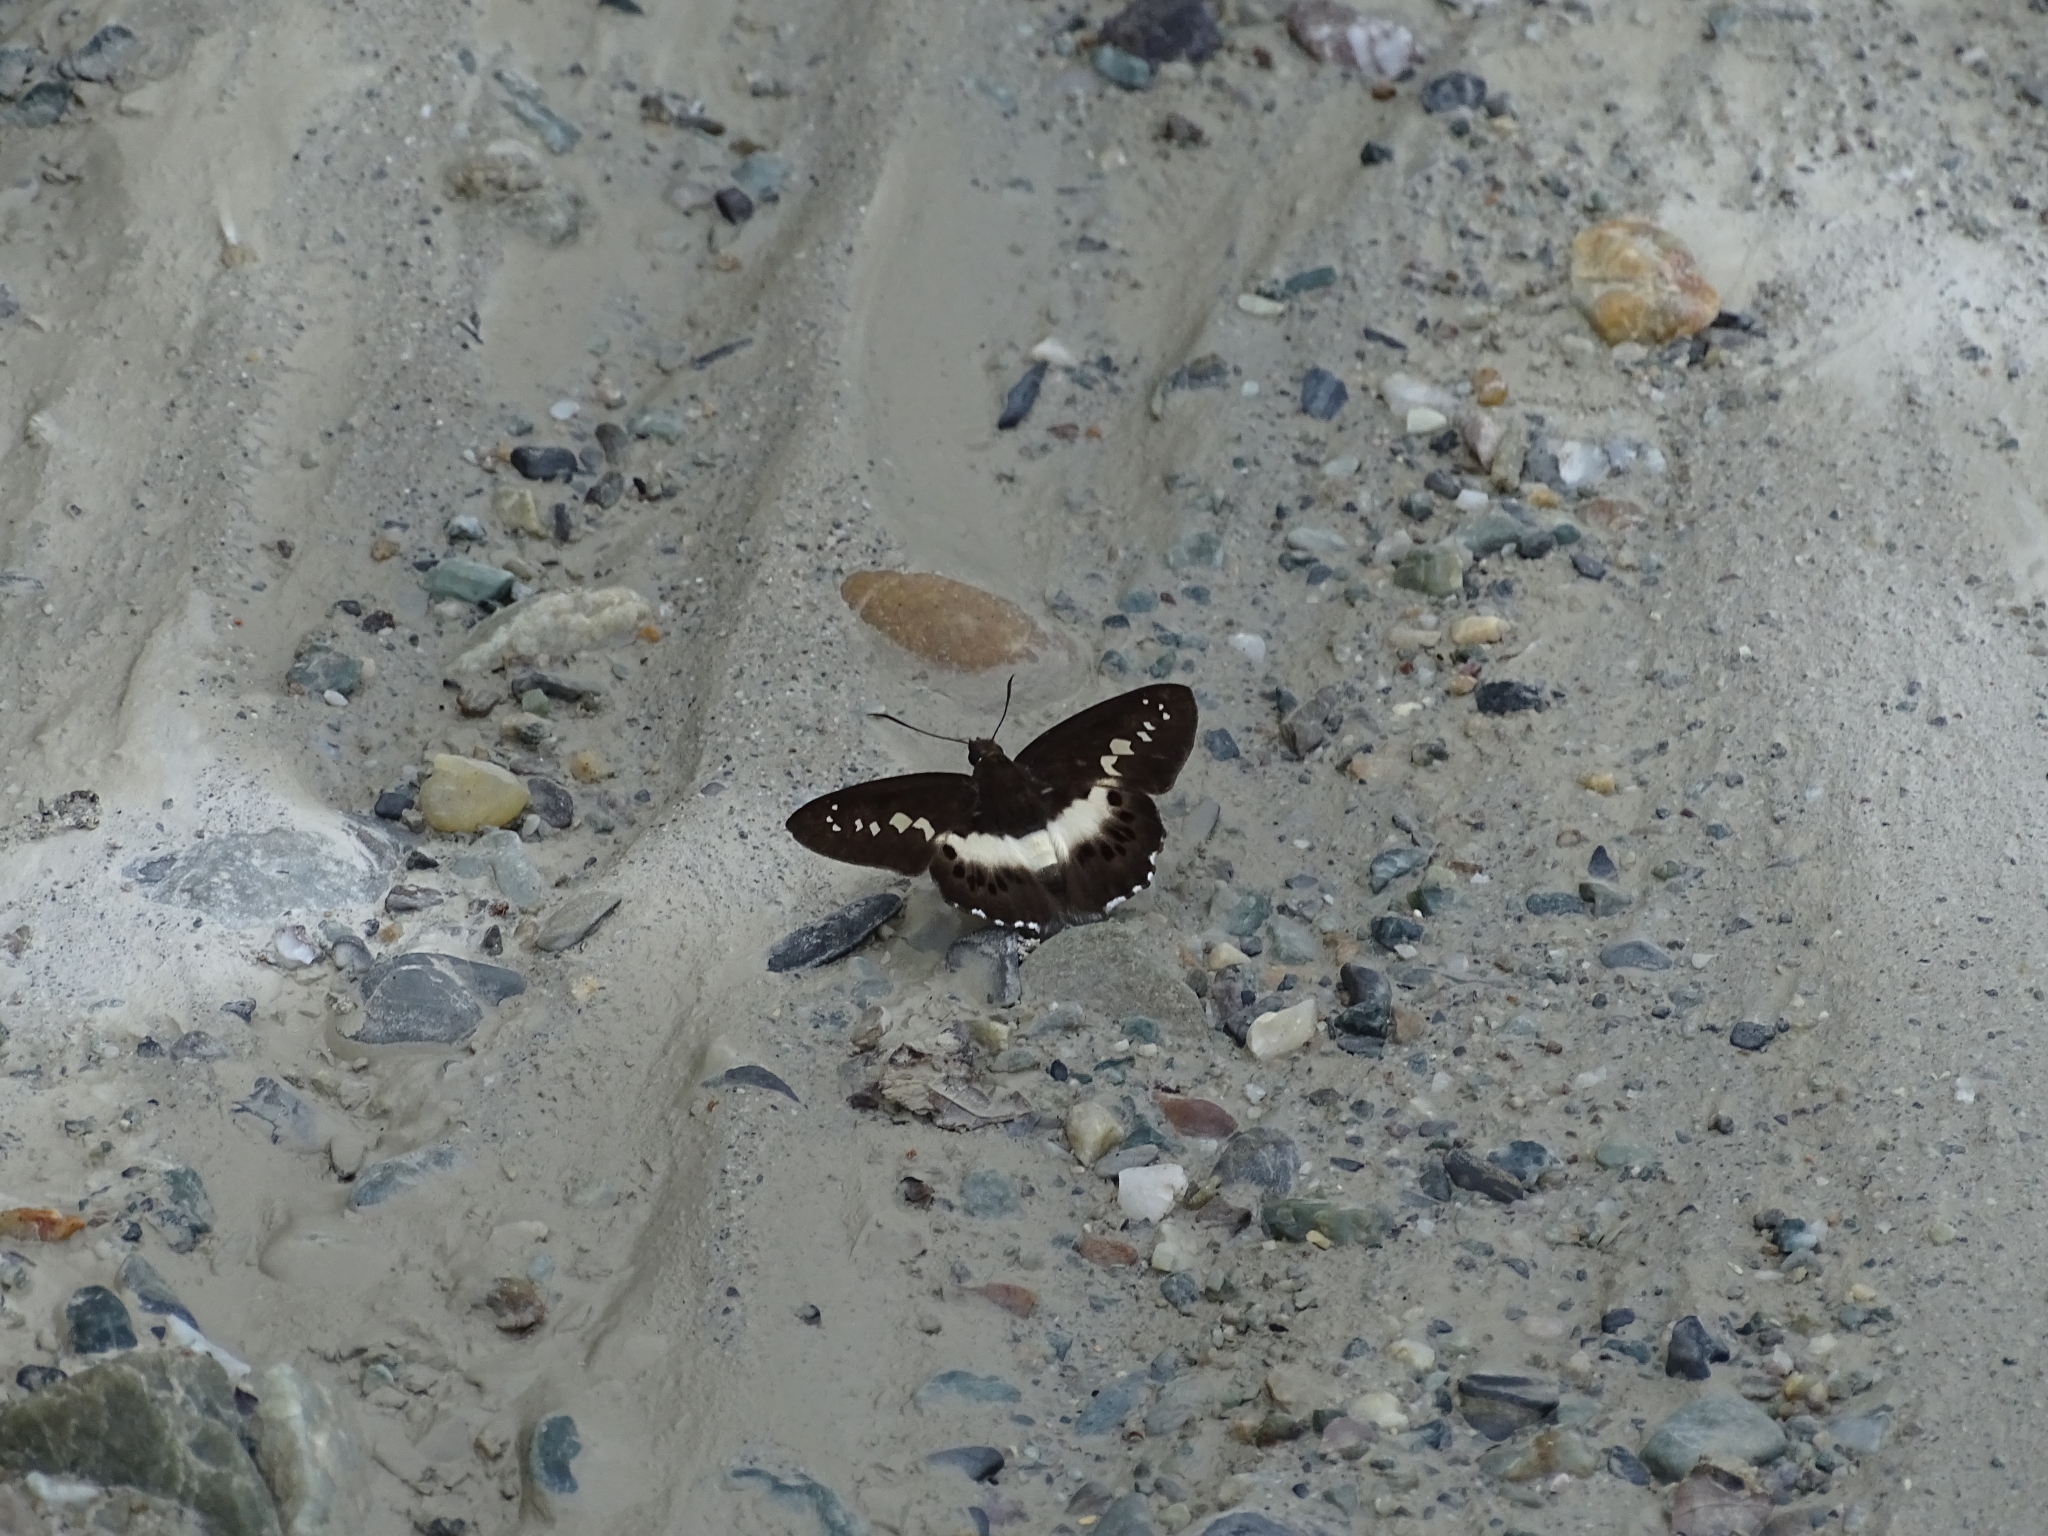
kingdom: Animalia
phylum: Arthropoda
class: Insecta
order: Lepidoptera
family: Hesperiidae
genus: Seseria
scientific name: Seseria sambara
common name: Notched seseria
